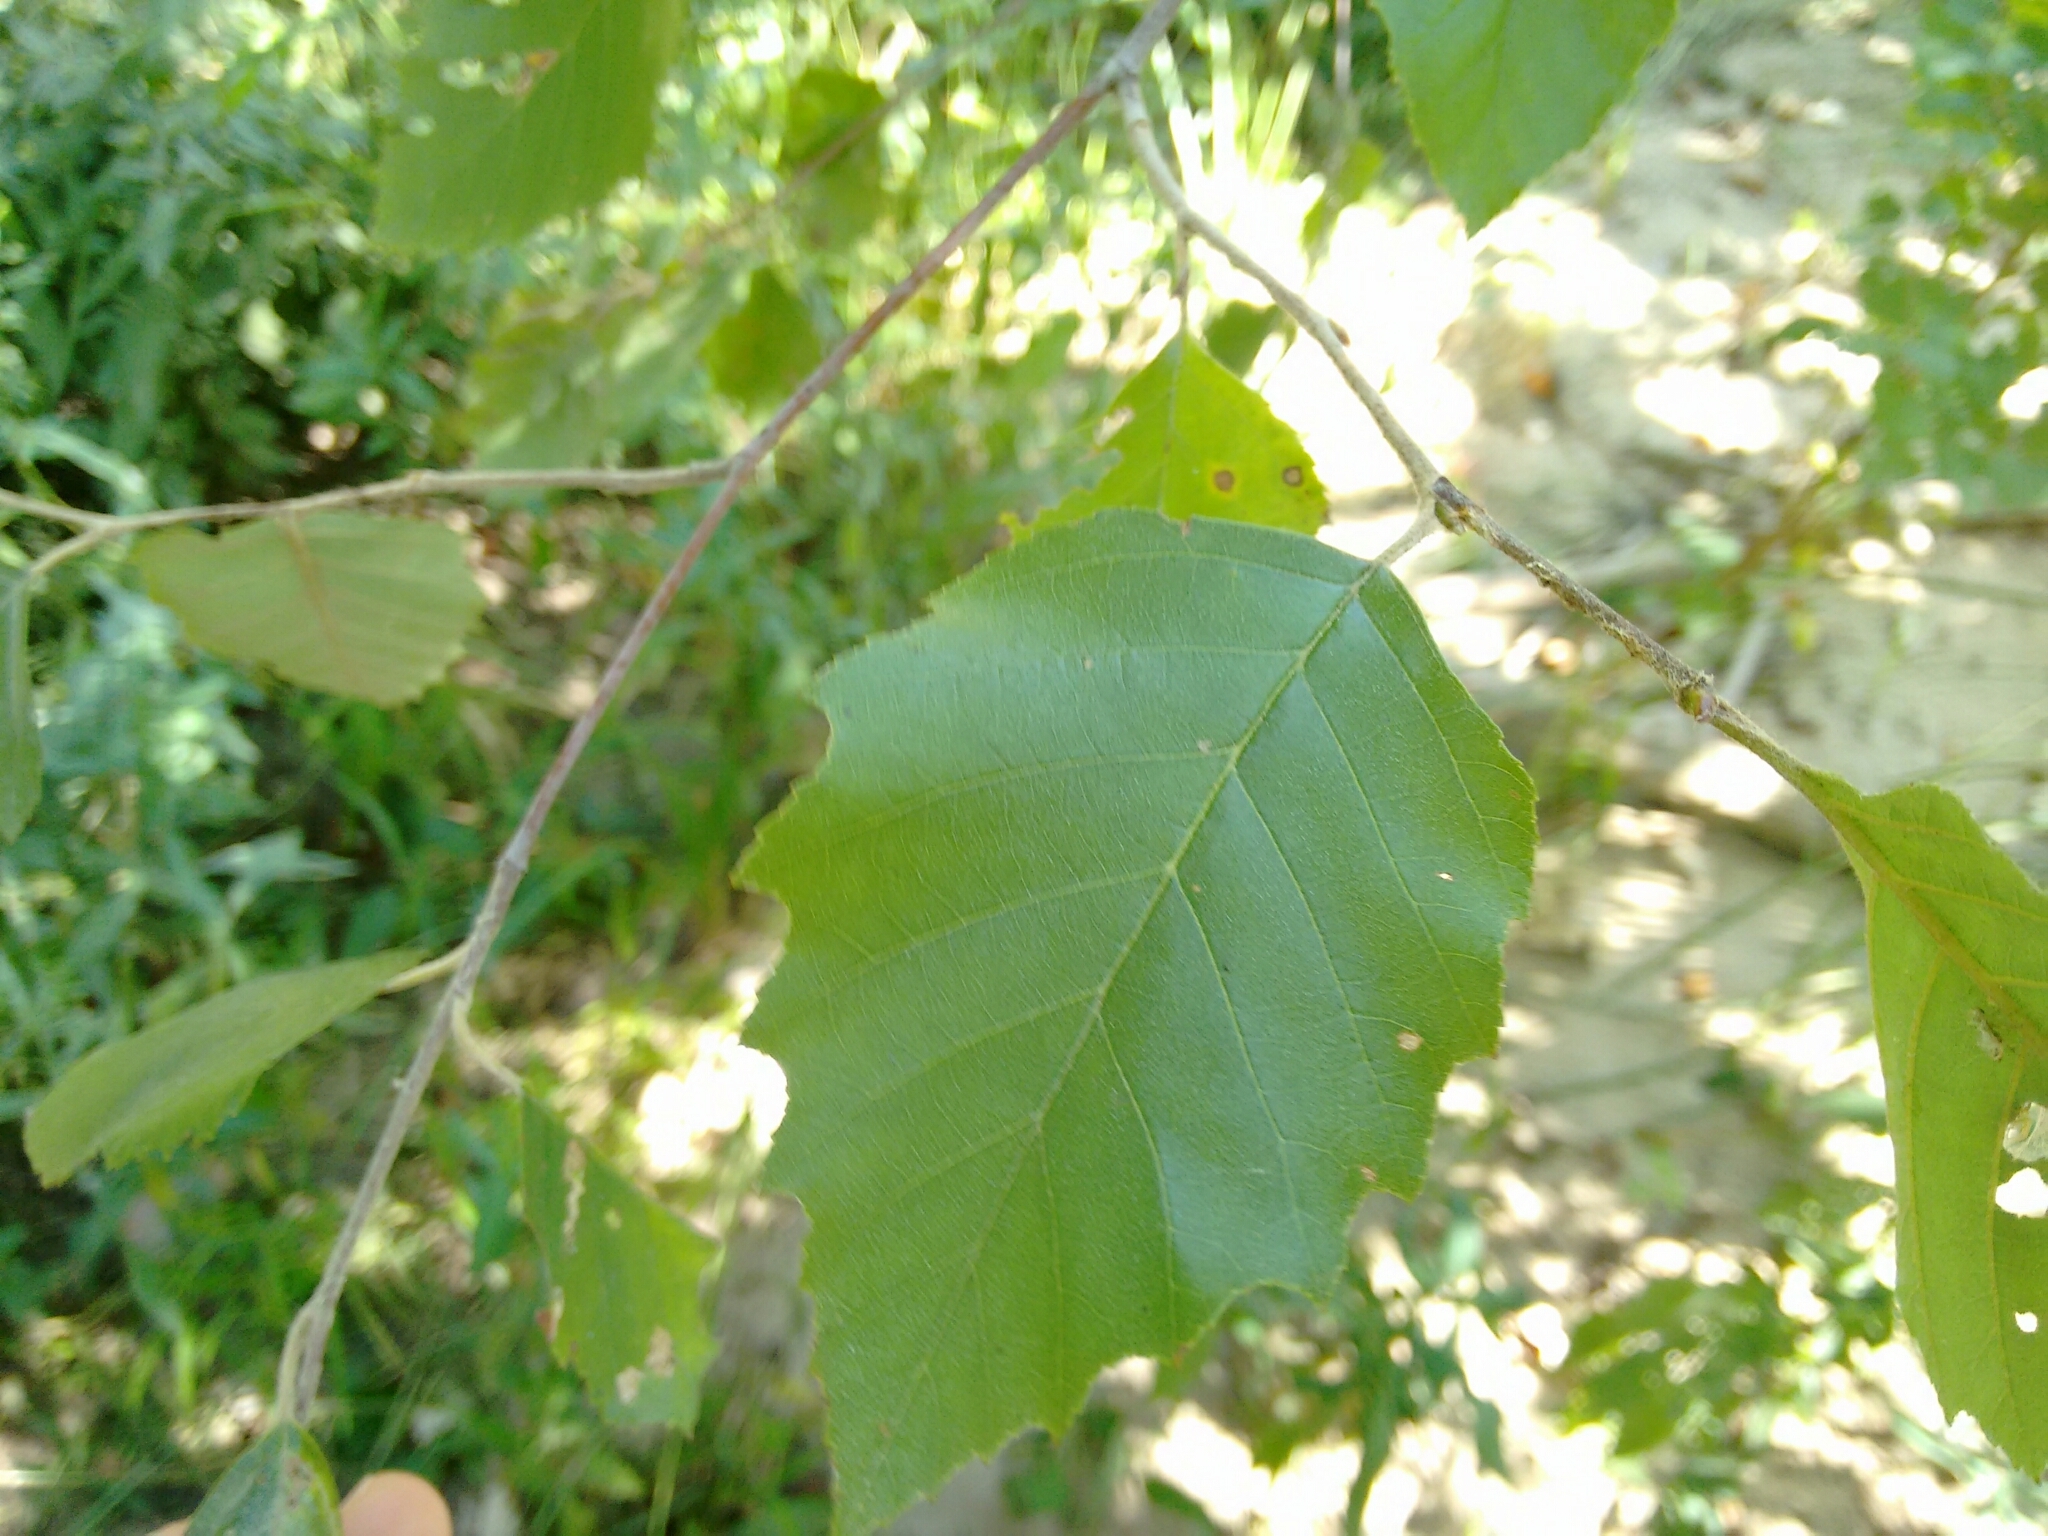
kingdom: Plantae
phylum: Tracheophyta
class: Magnoliopsida
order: Fagales
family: Betulaceae
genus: Betula
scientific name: Betula nigra
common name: Black birch
